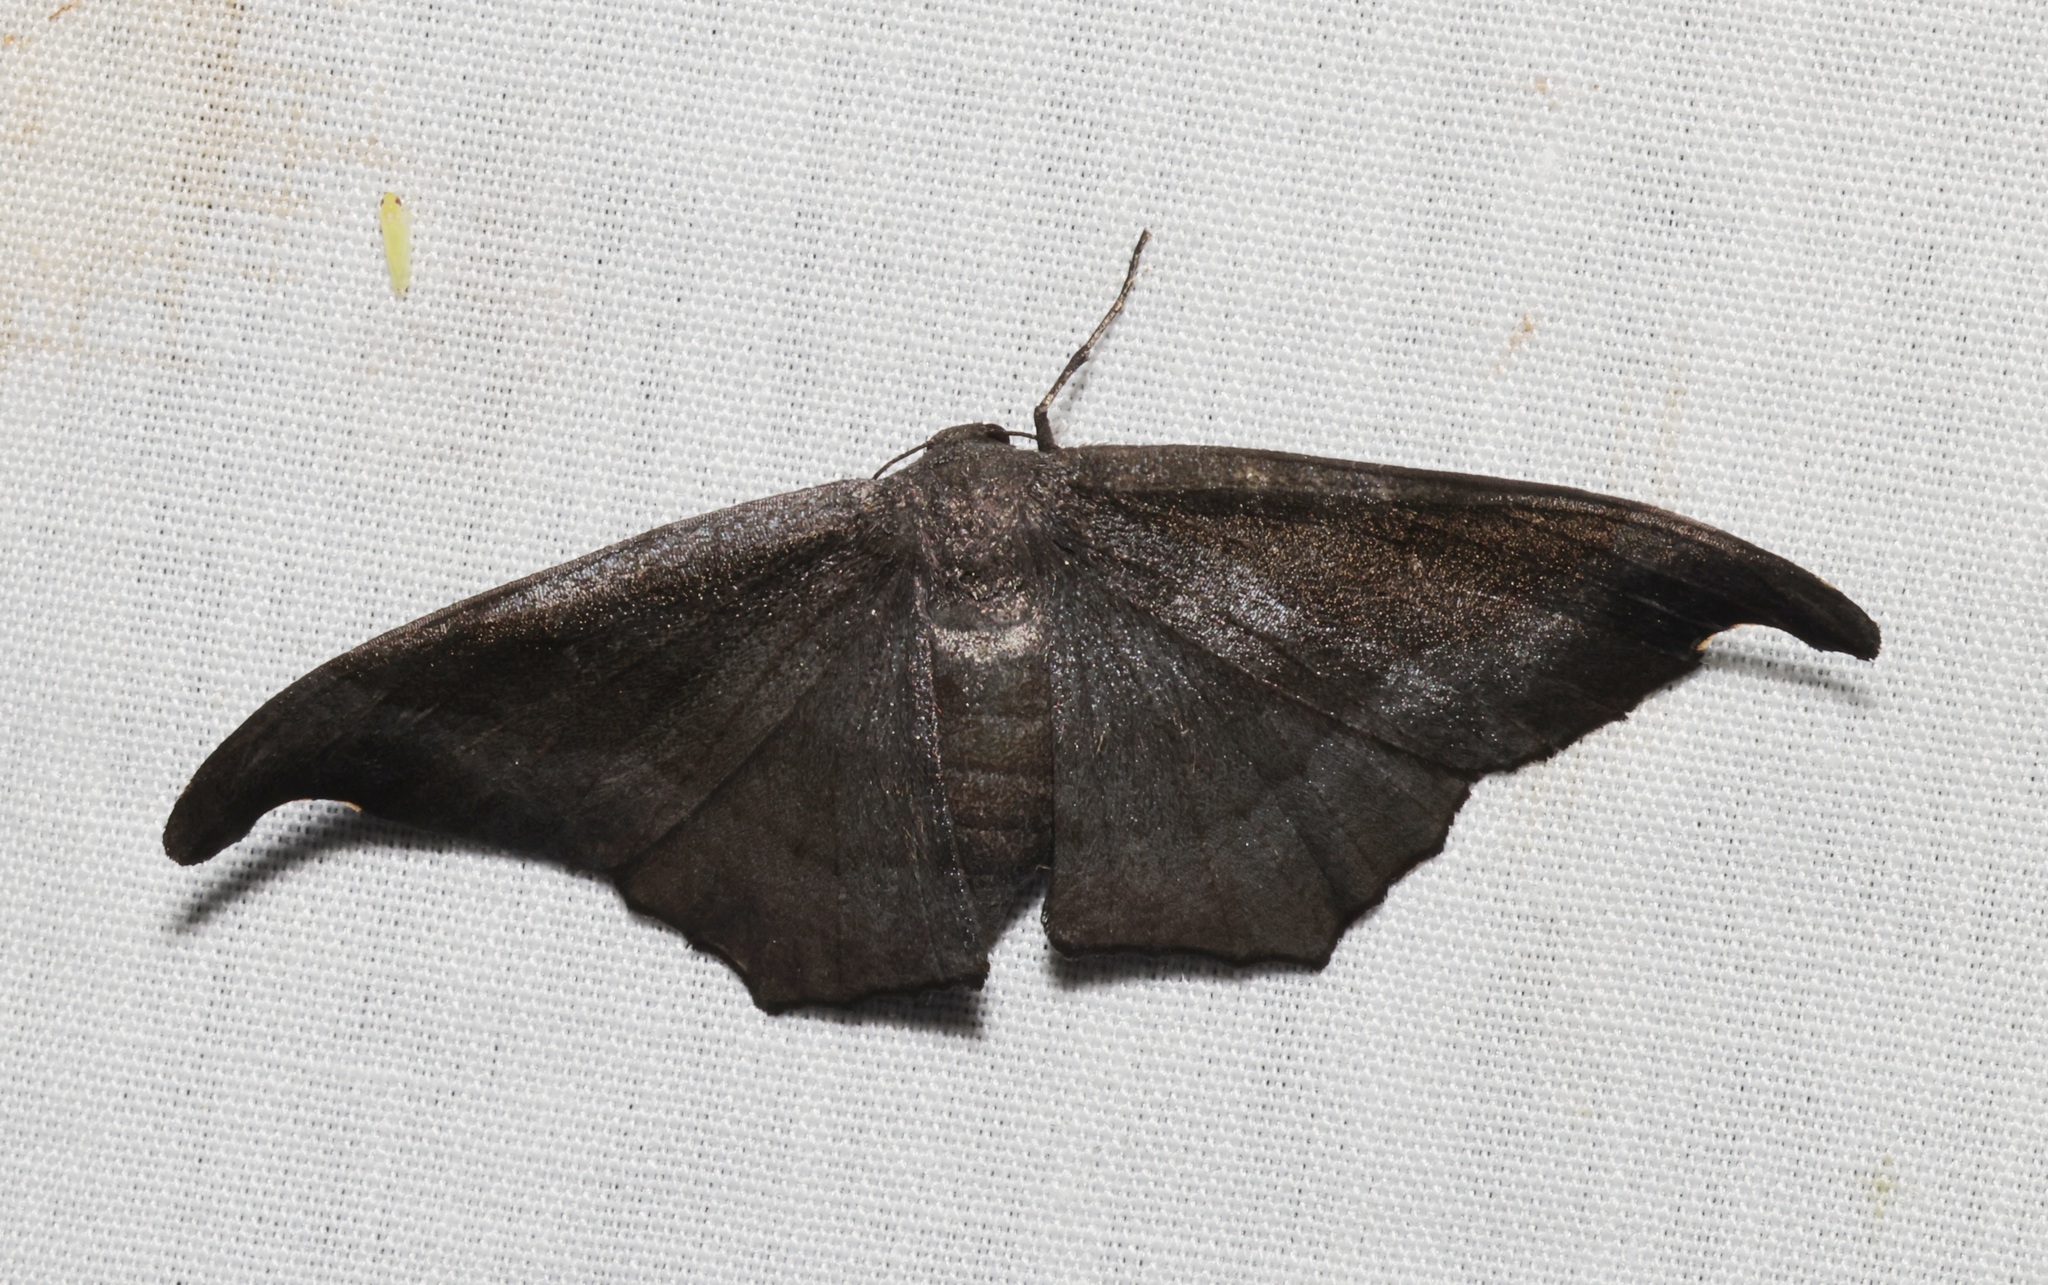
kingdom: Animalia
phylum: Arthropoda
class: Insecta
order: Lepidoptera
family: Geometridae
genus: Hyposidra
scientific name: Hyposidra talaca
